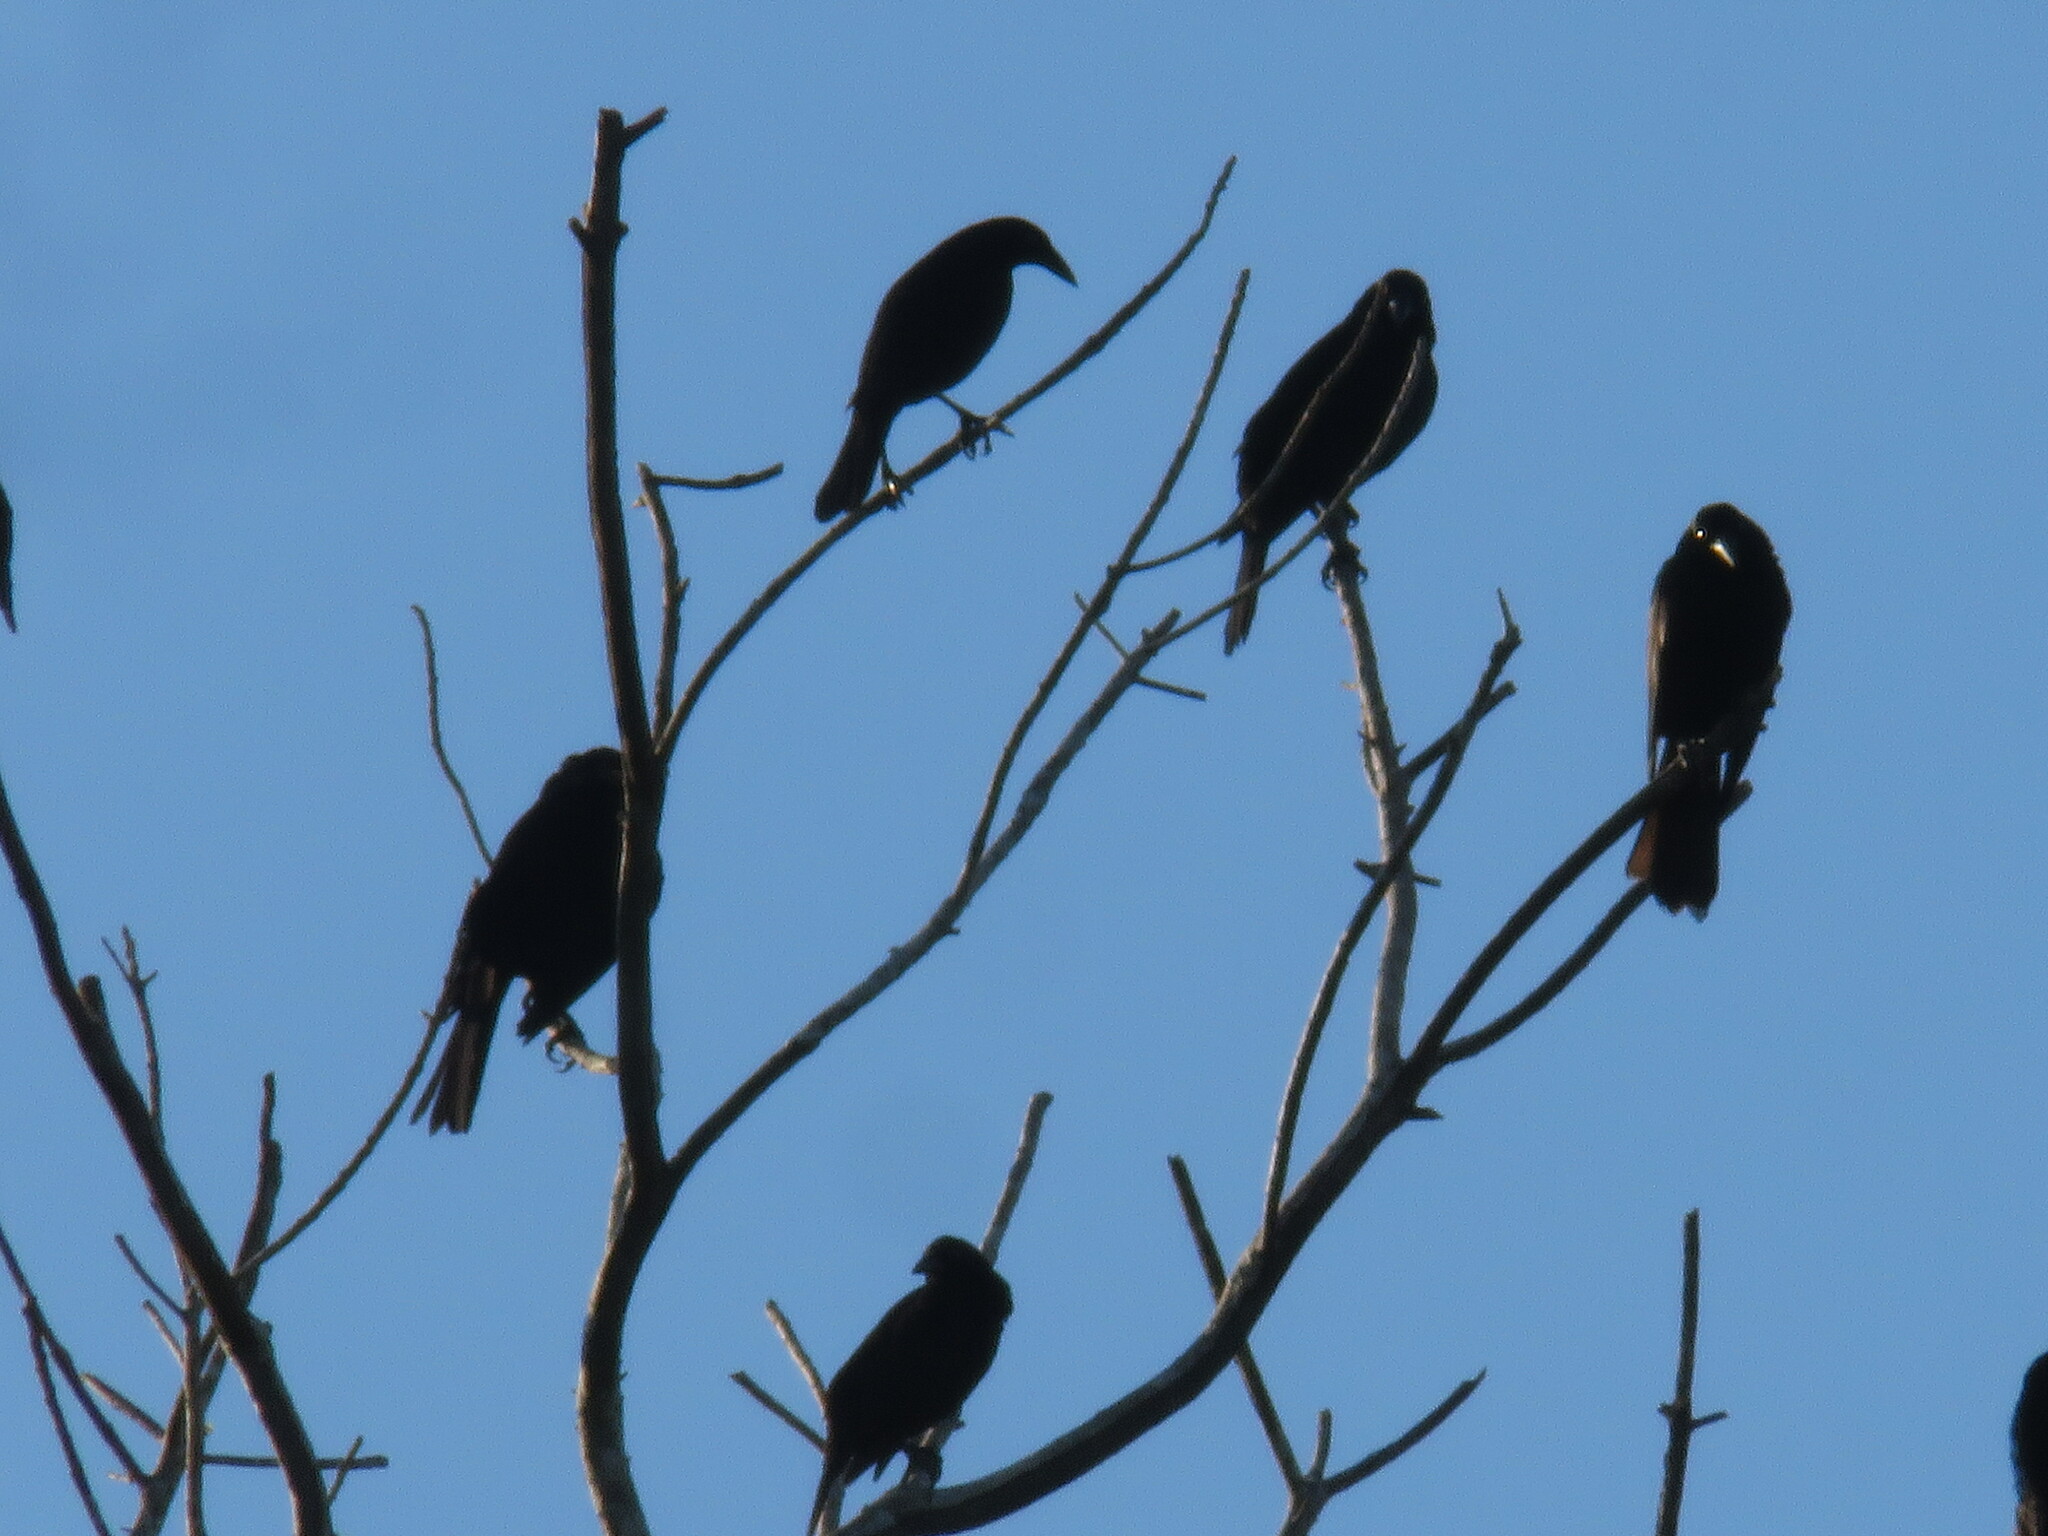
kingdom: Animalia
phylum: Chordata
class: Aves
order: Passeriformes
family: Icteridae
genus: Molothrus
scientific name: Molothrus oryzivorus
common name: Giant cowbird
